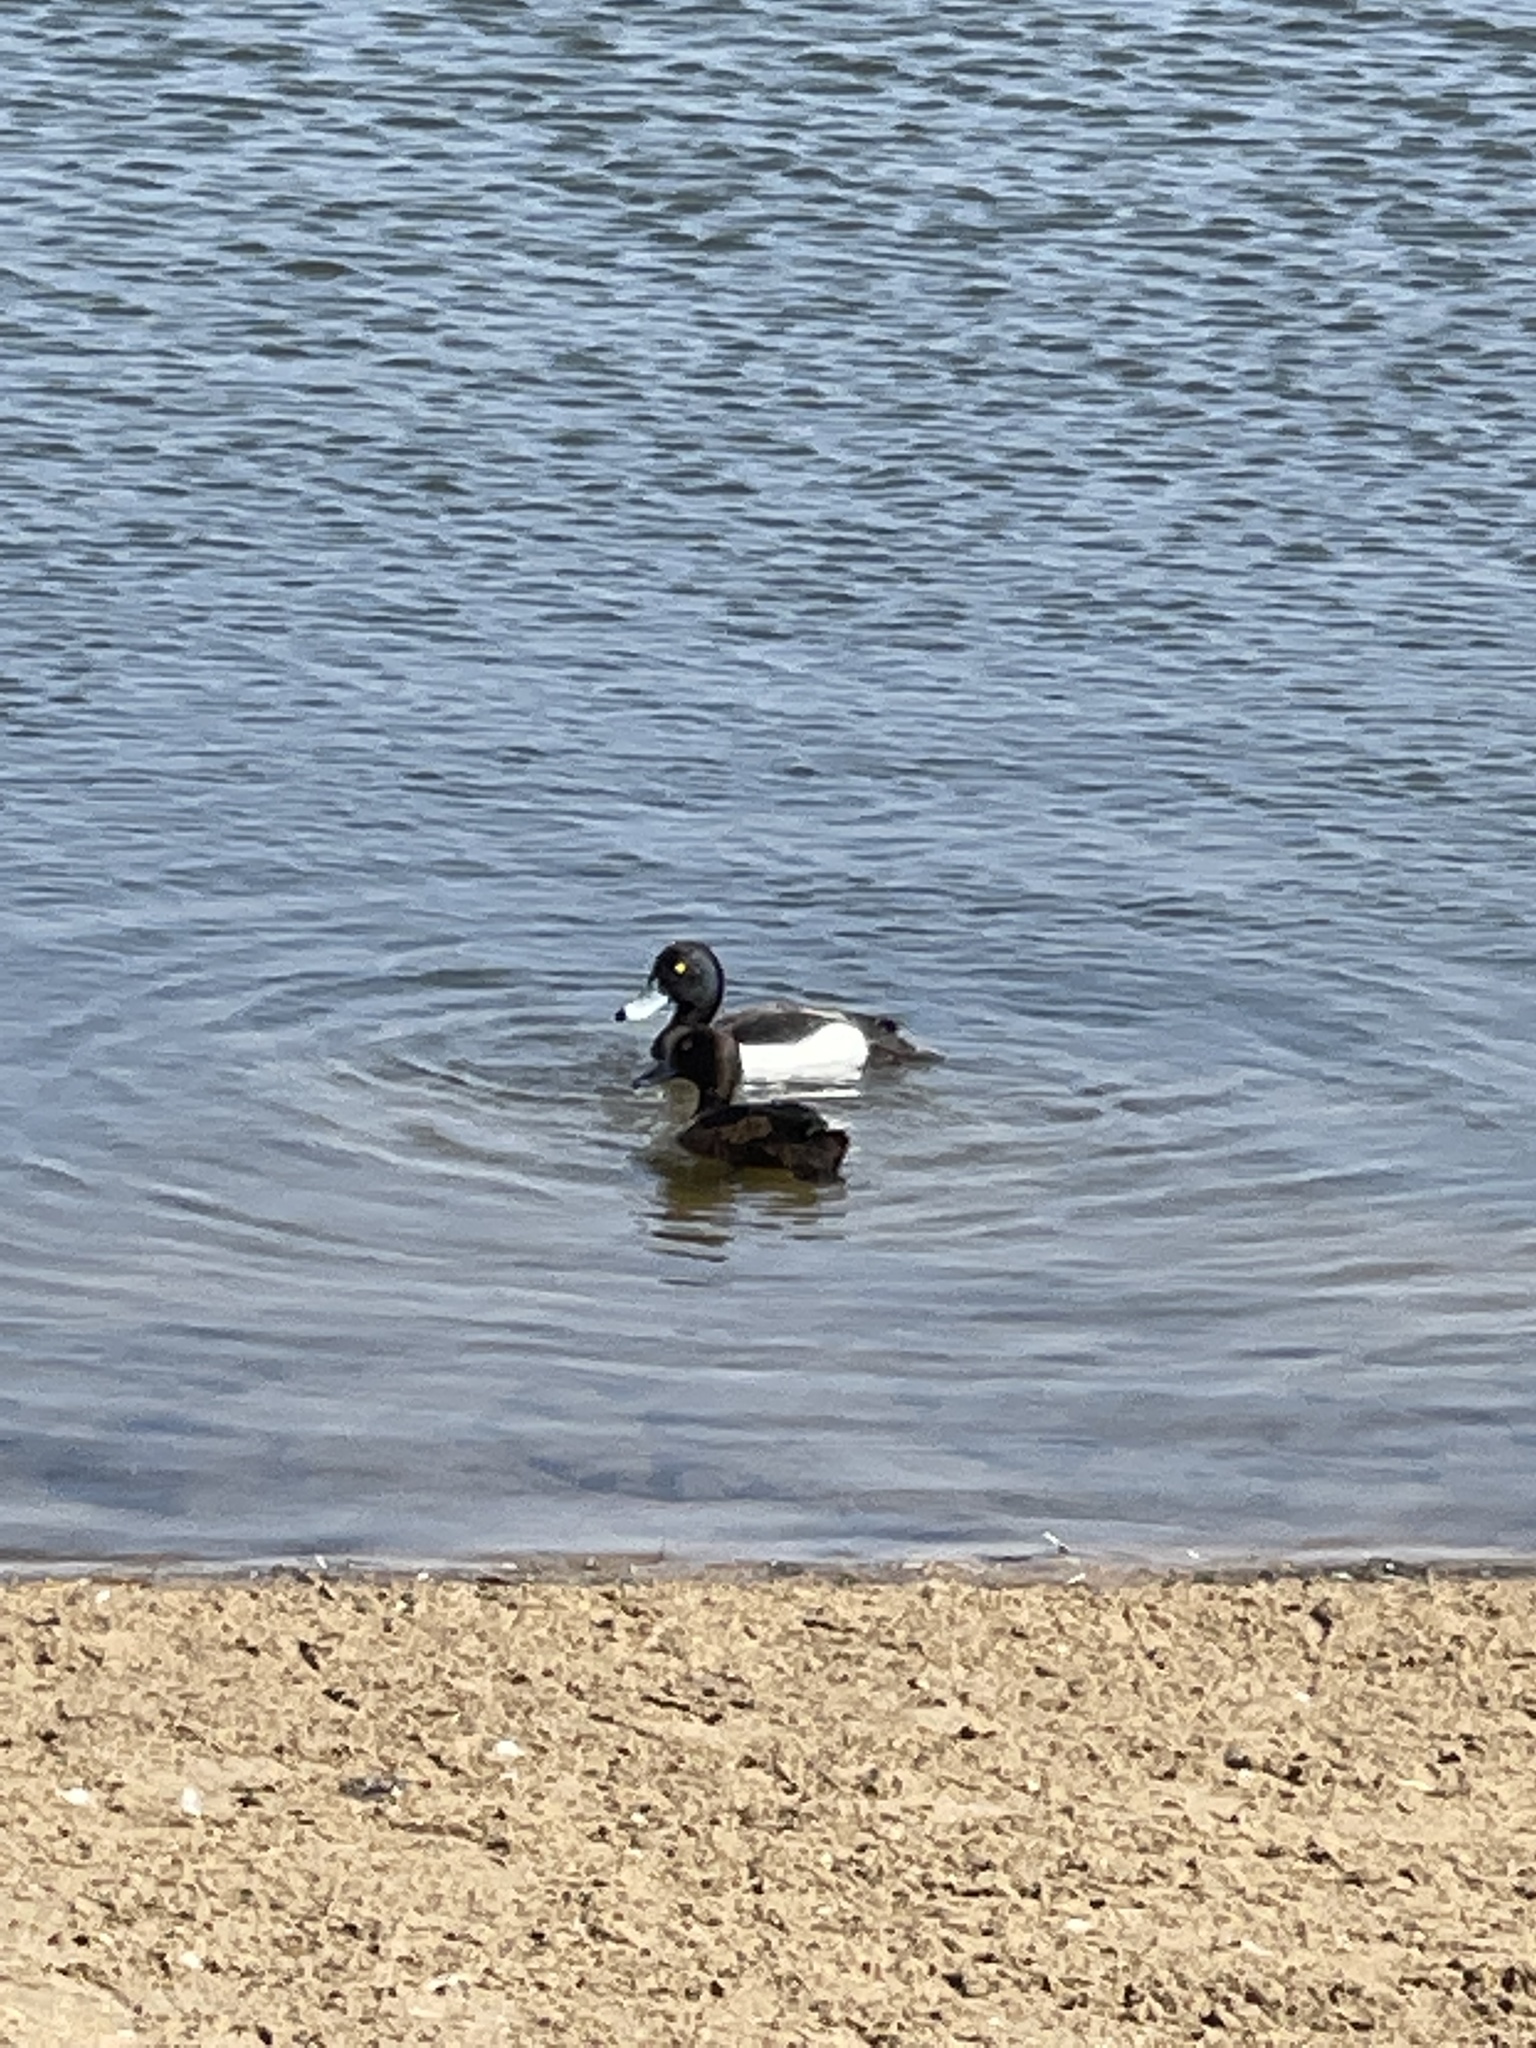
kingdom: Animalia
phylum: Chordata
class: Aves
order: Anseriformes
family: Anatidae
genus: Aythya
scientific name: Aythya fuligula
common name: Tufted duck
